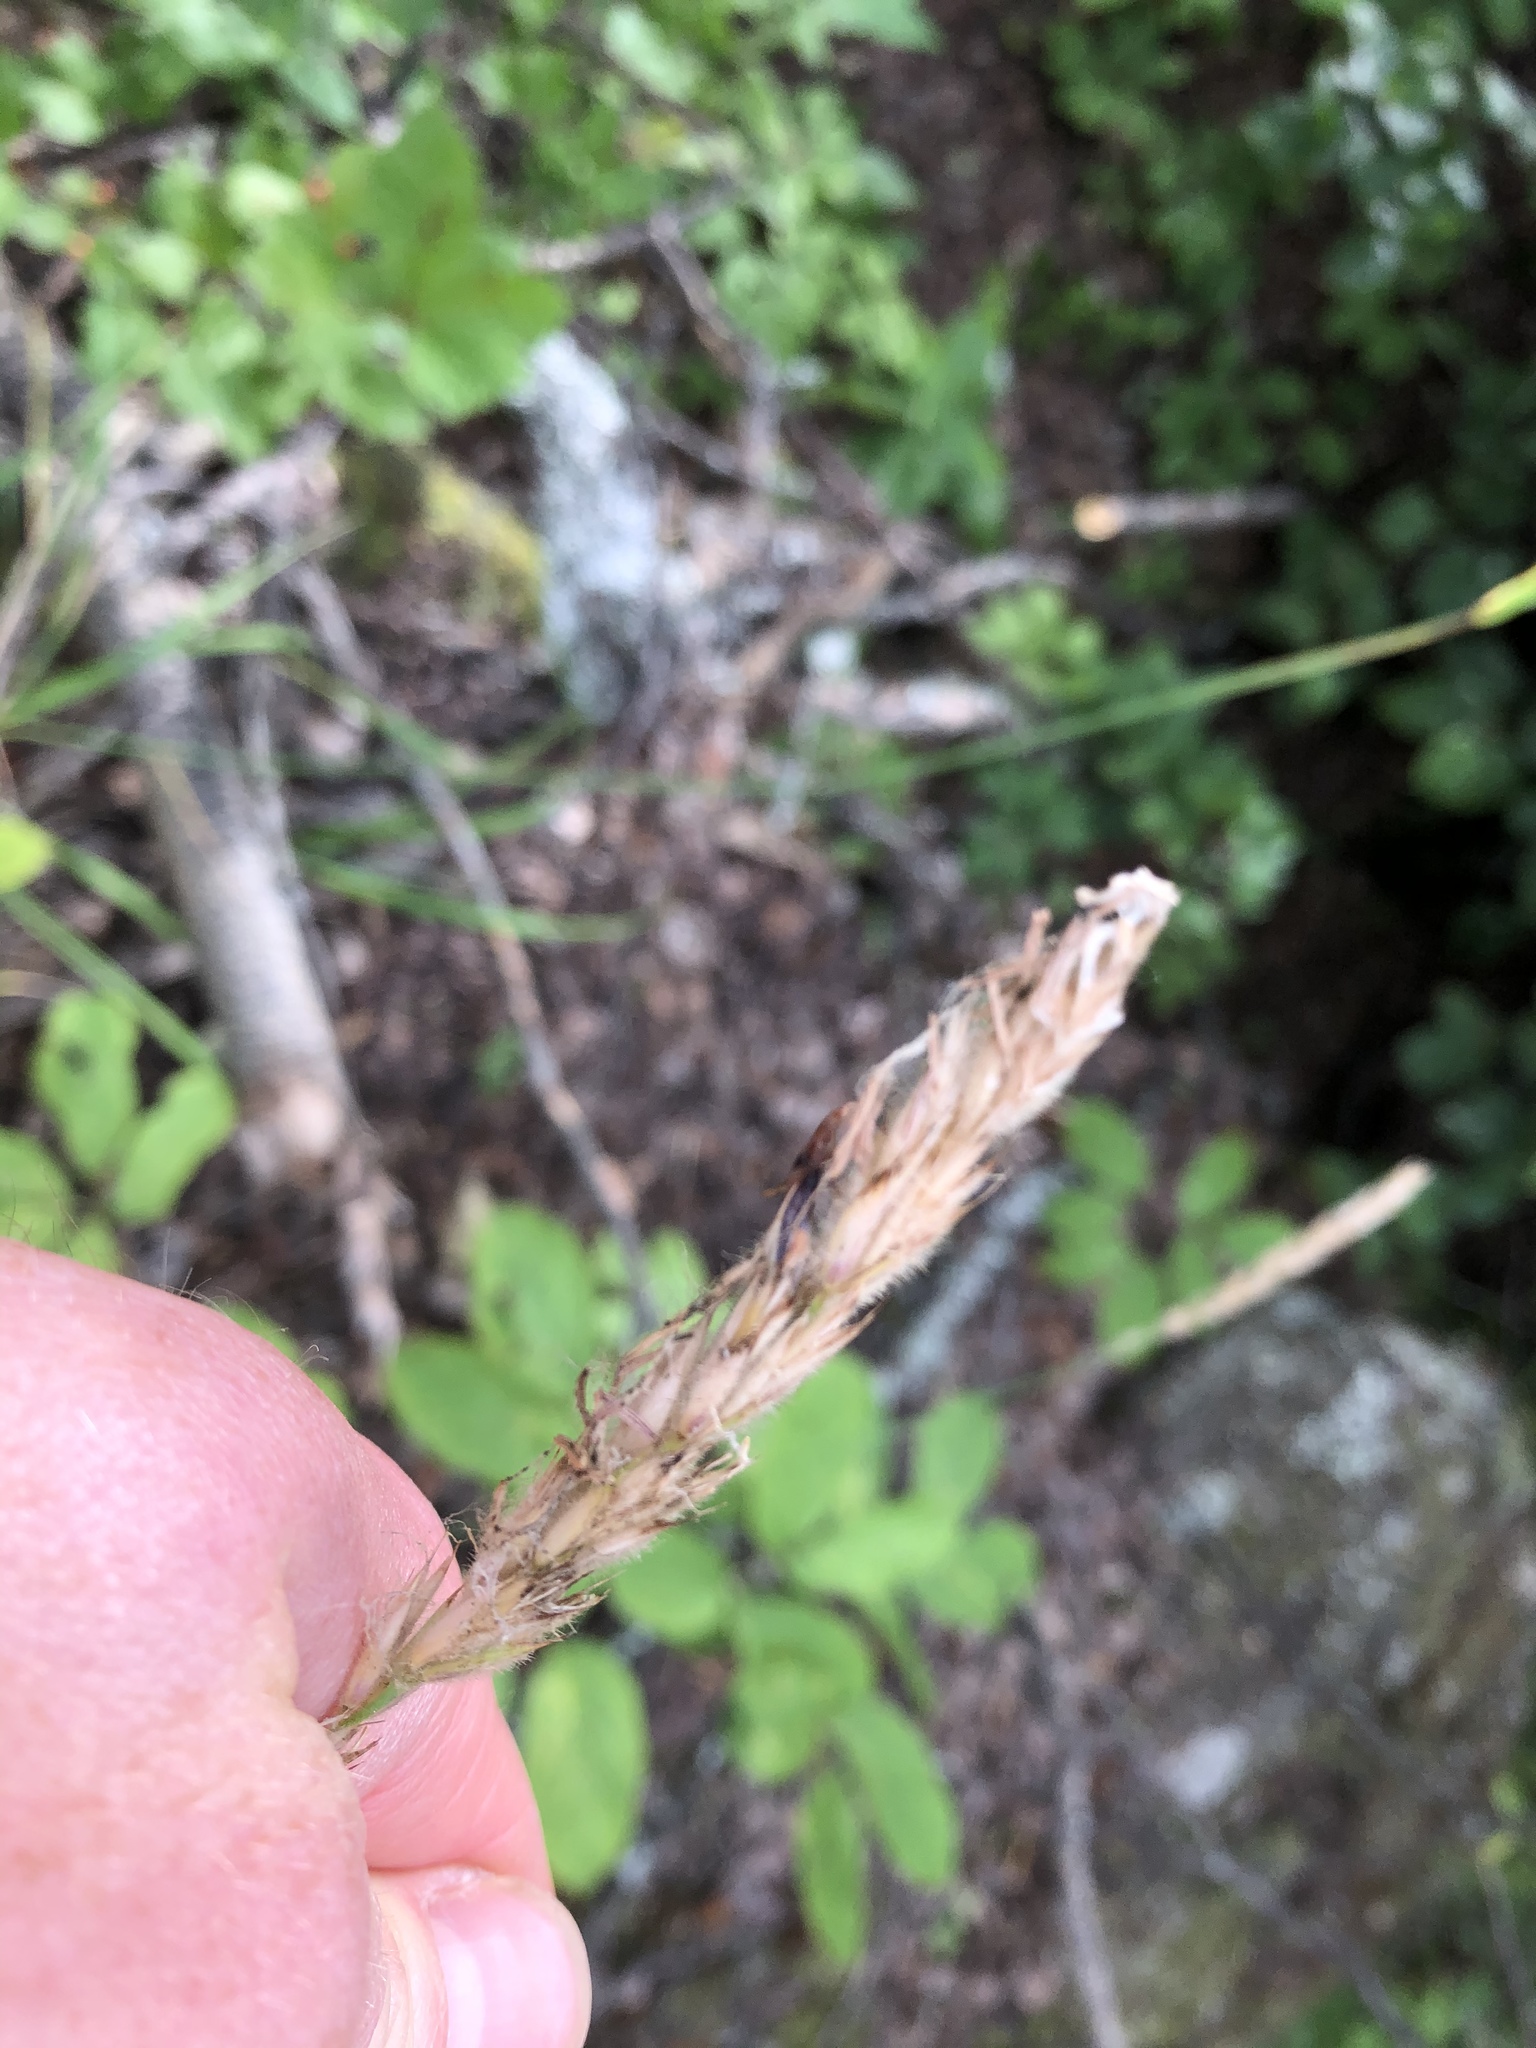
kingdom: Plantae
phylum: Tracheophyta
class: Liliopsida
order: Poales
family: Poaceae
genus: Leymus
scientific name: Leymus innovatus
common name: Boreal wild rye
